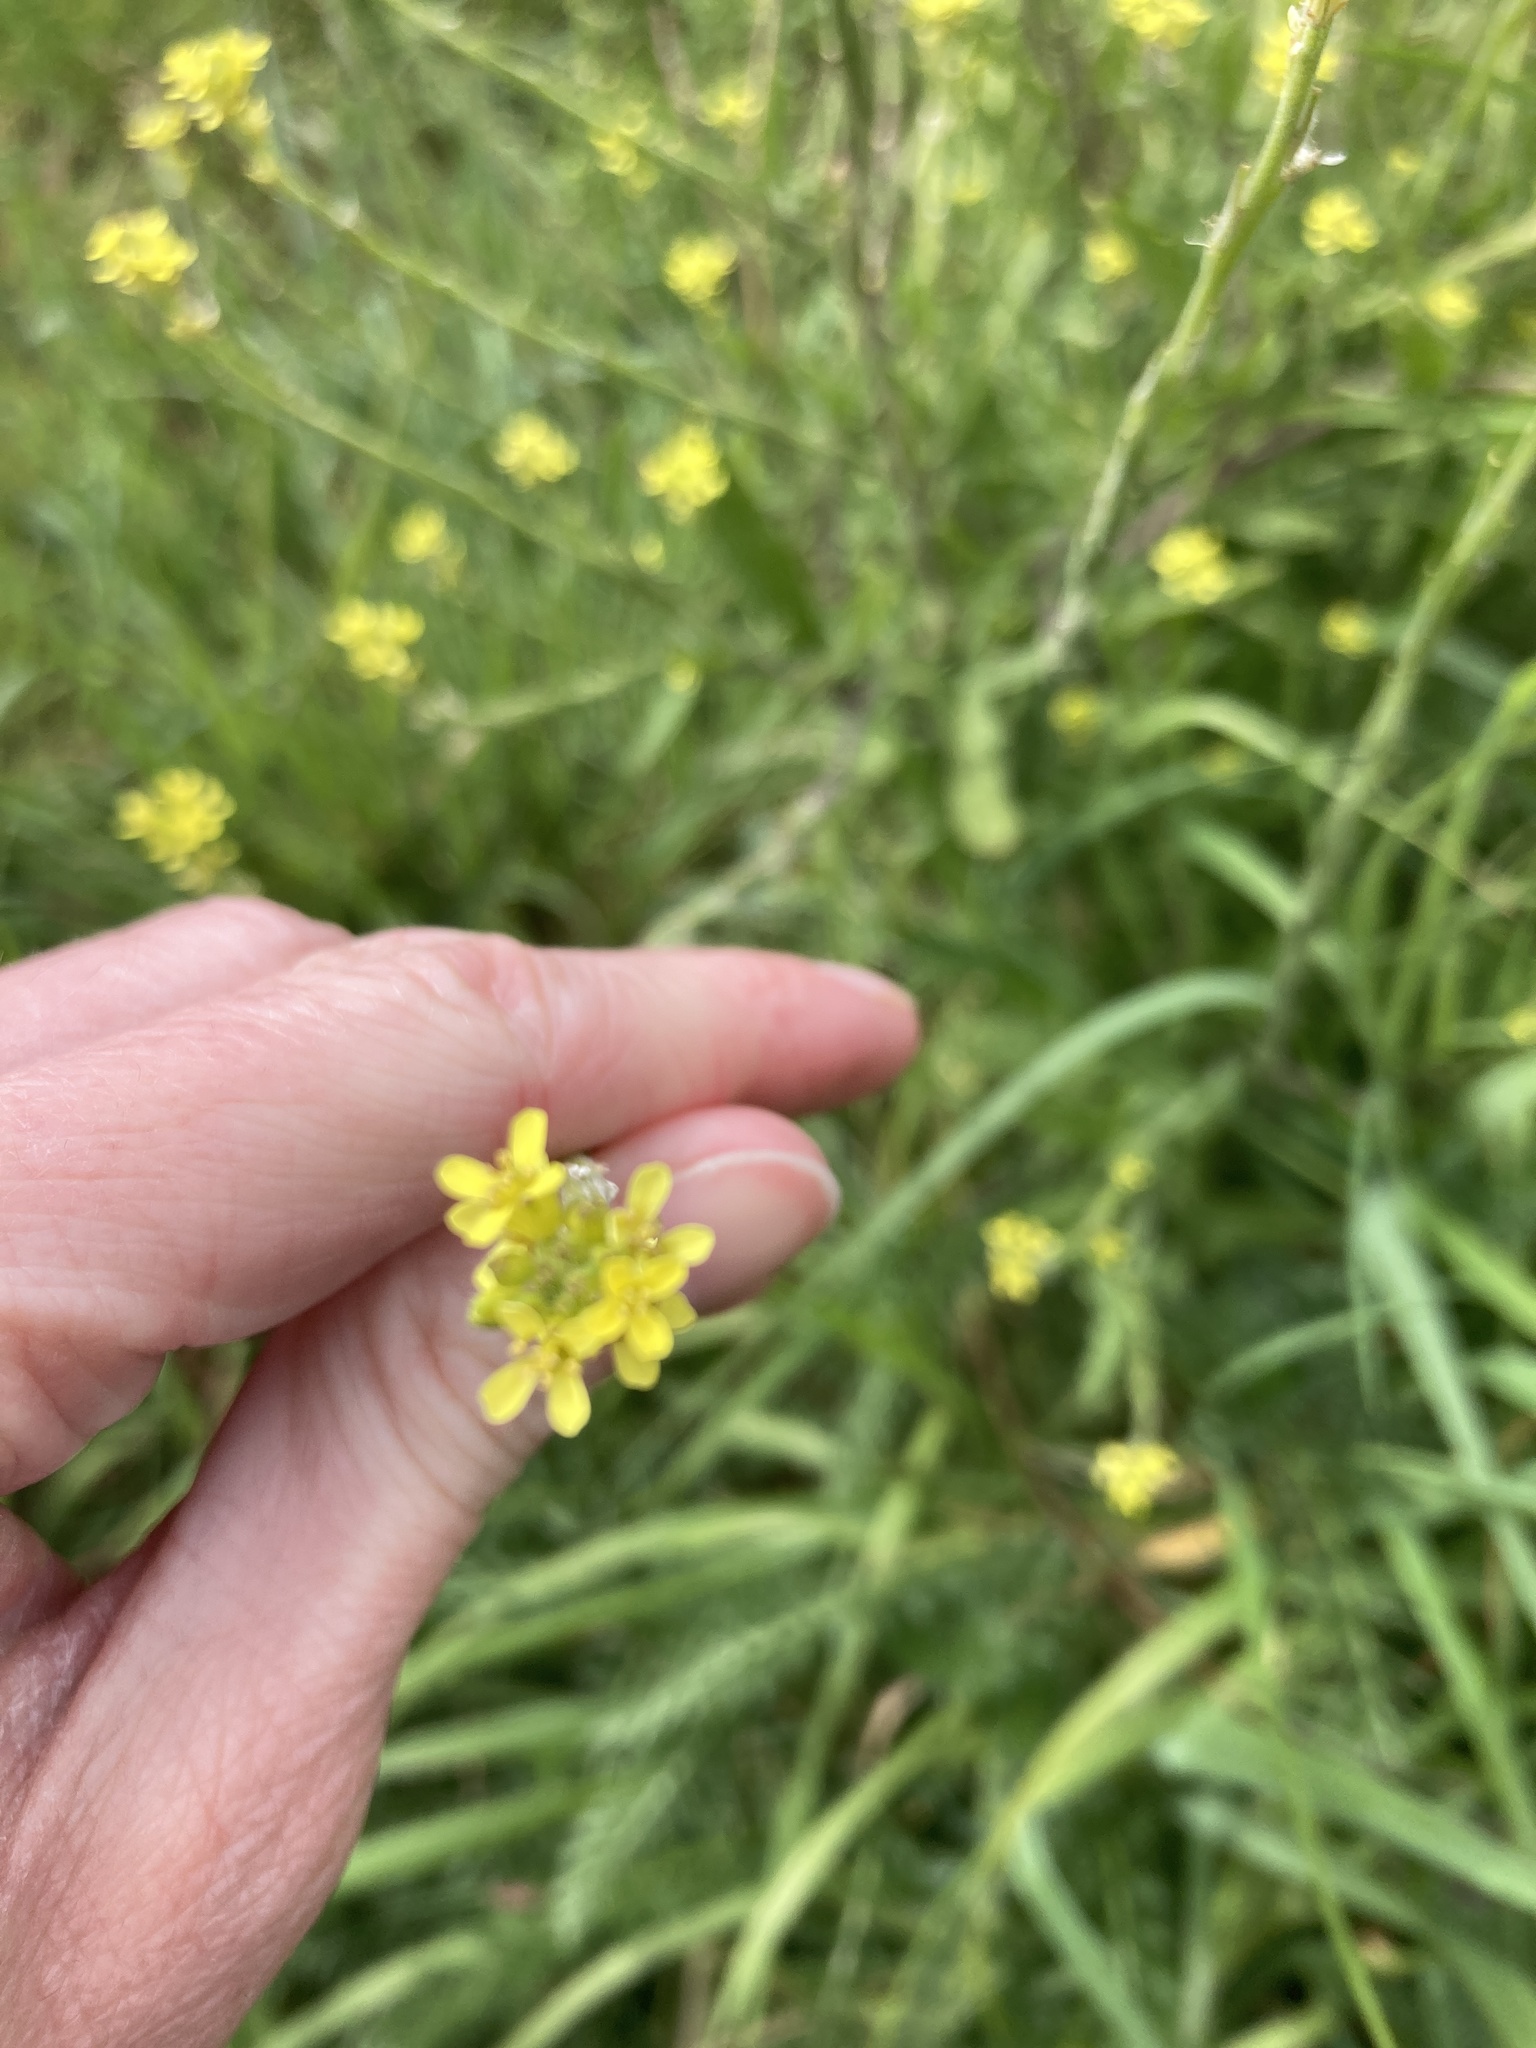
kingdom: Plantae
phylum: Tracheophyta
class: Magnoliopsida
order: Brassicales
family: Brassicaceae
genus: Sisymbrium
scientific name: Sisymbrium officinale
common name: Hedge mustard
